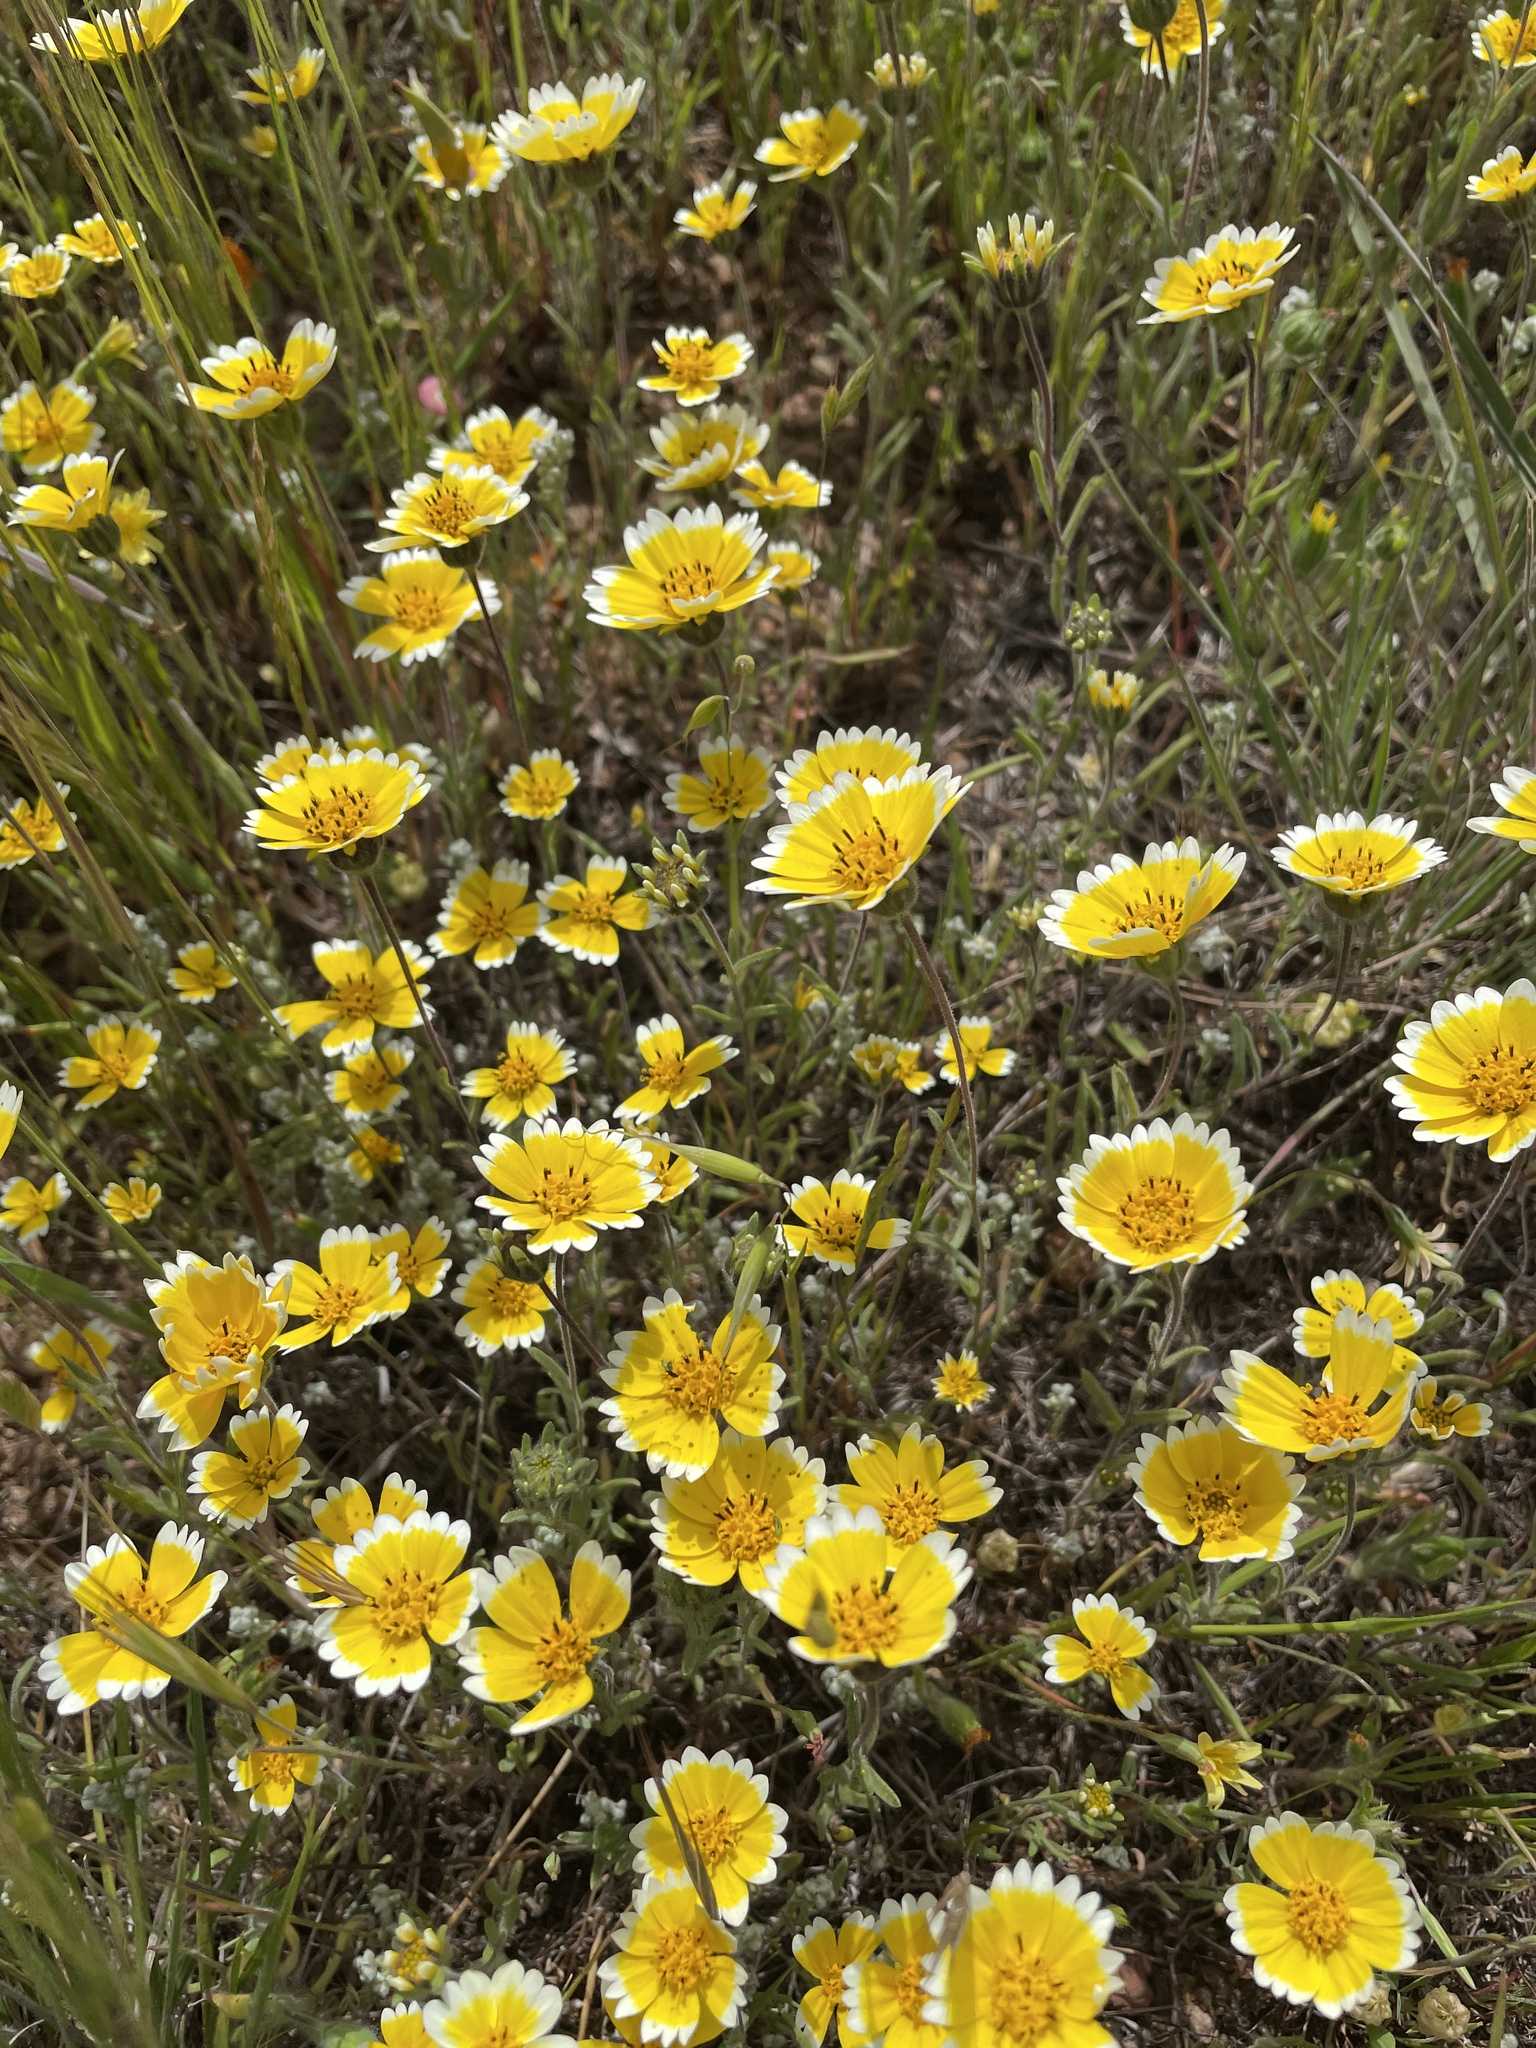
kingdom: Plantae
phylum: Tracheophyta
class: Magnoliopsida
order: Asterales
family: Asteraceae
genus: Layia
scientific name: Layia platyglossa
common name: Tidy-tips
